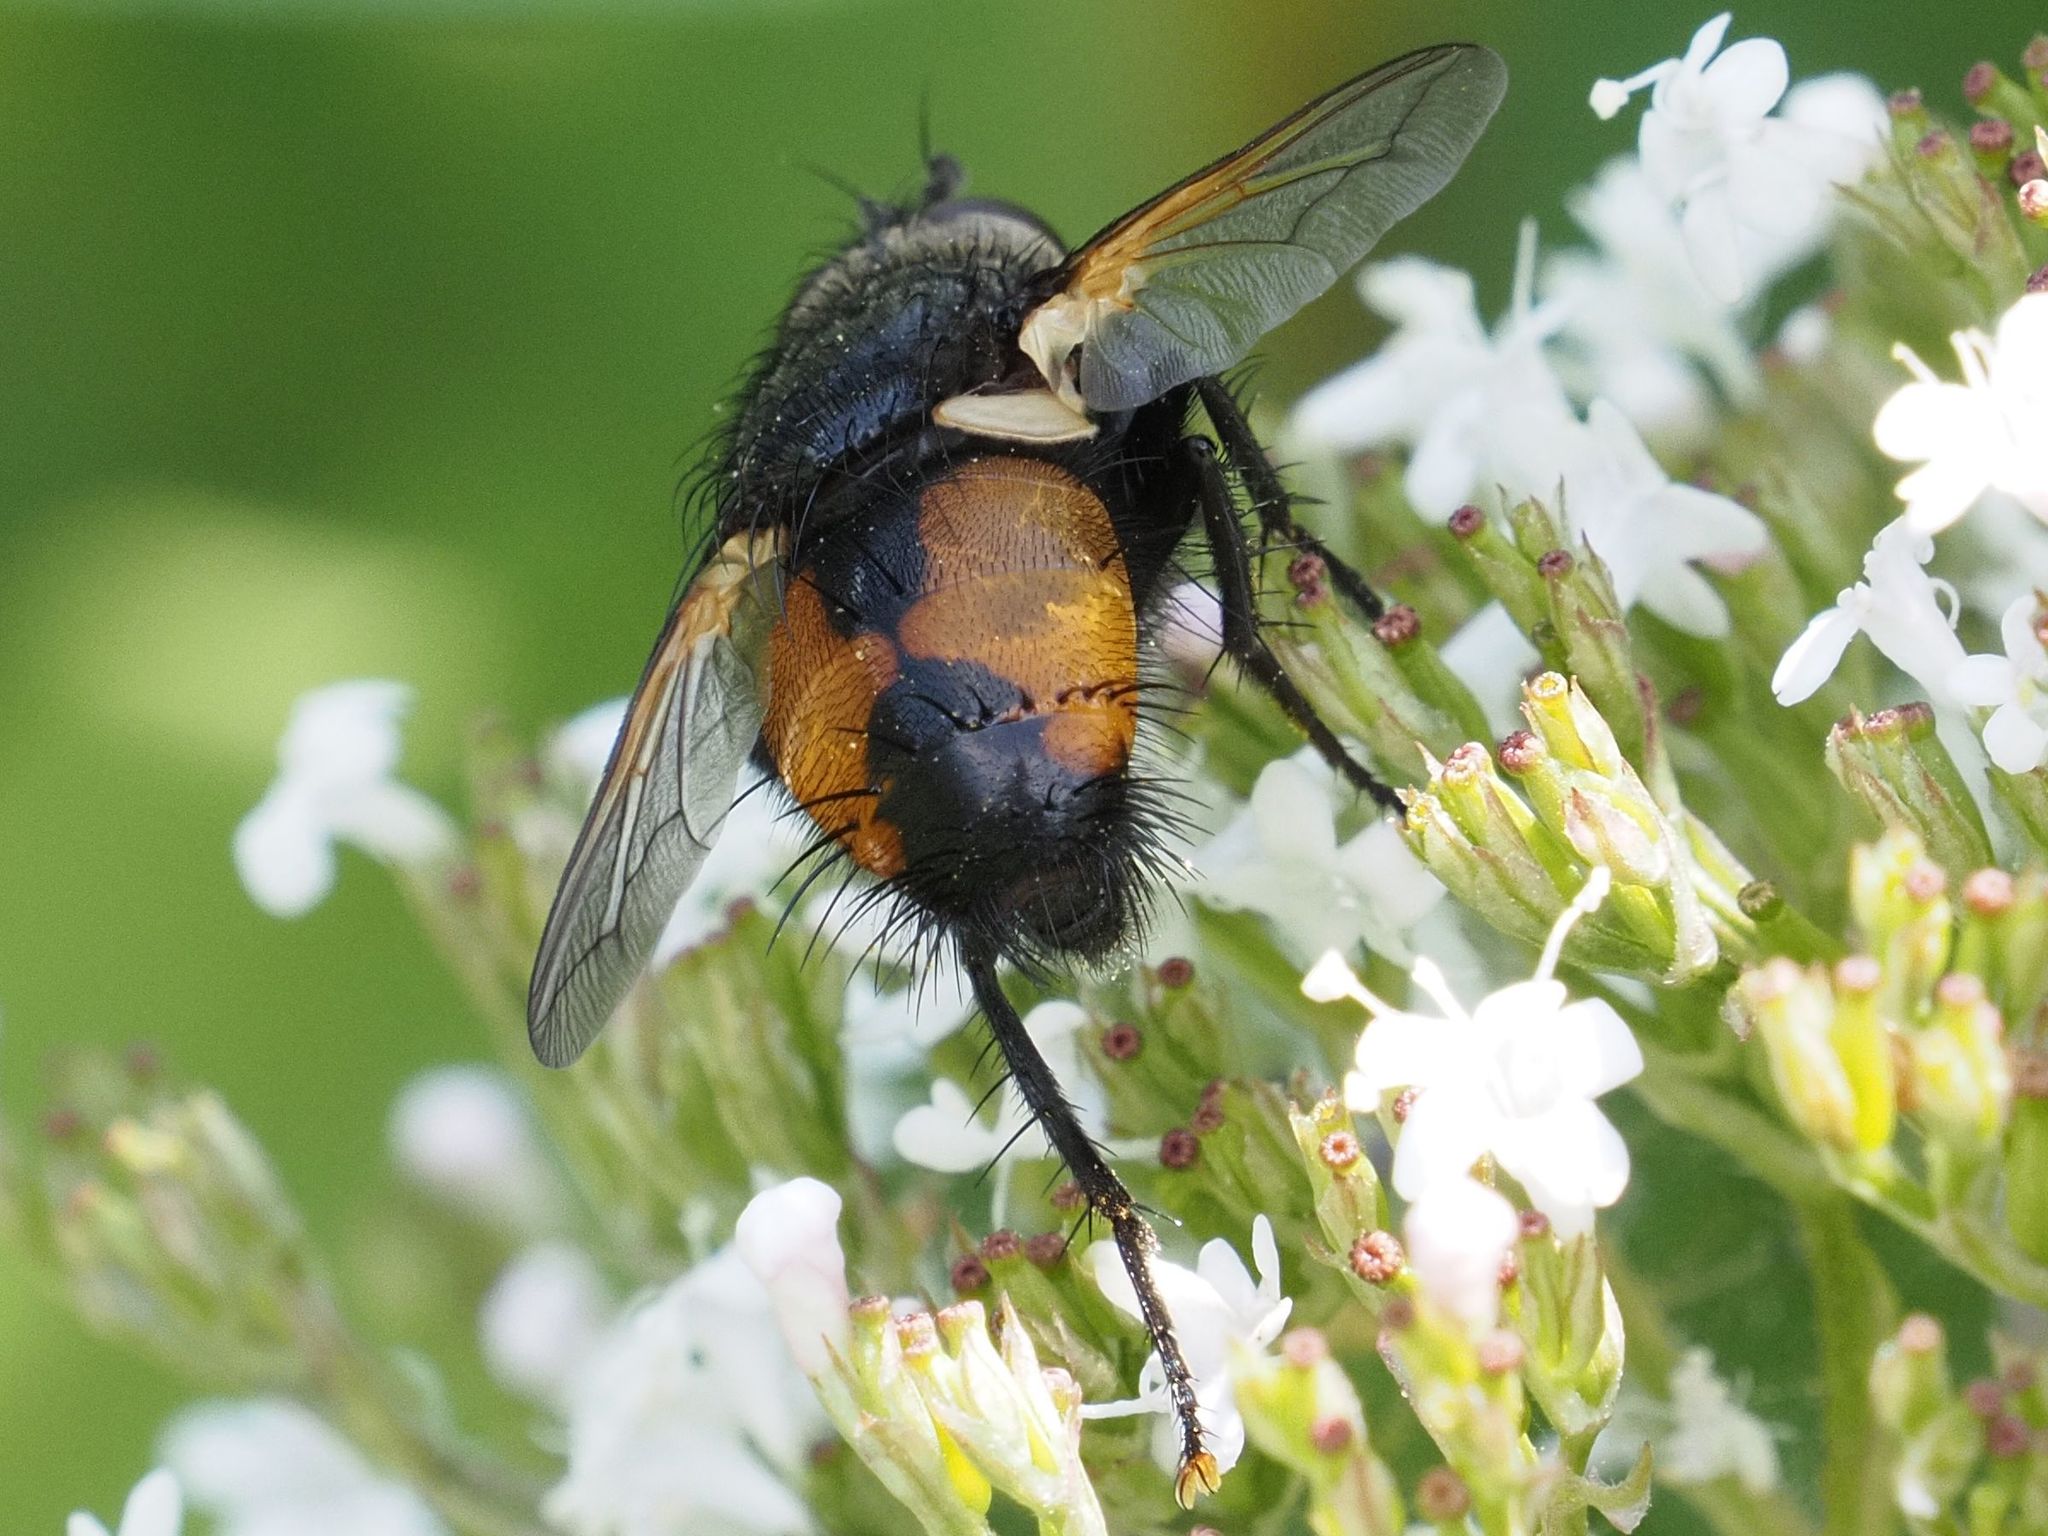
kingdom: Animalia
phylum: Arthropoda
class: Insecta
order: Diptera
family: Tachinidae
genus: Nowickia
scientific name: Nowickia ferox
